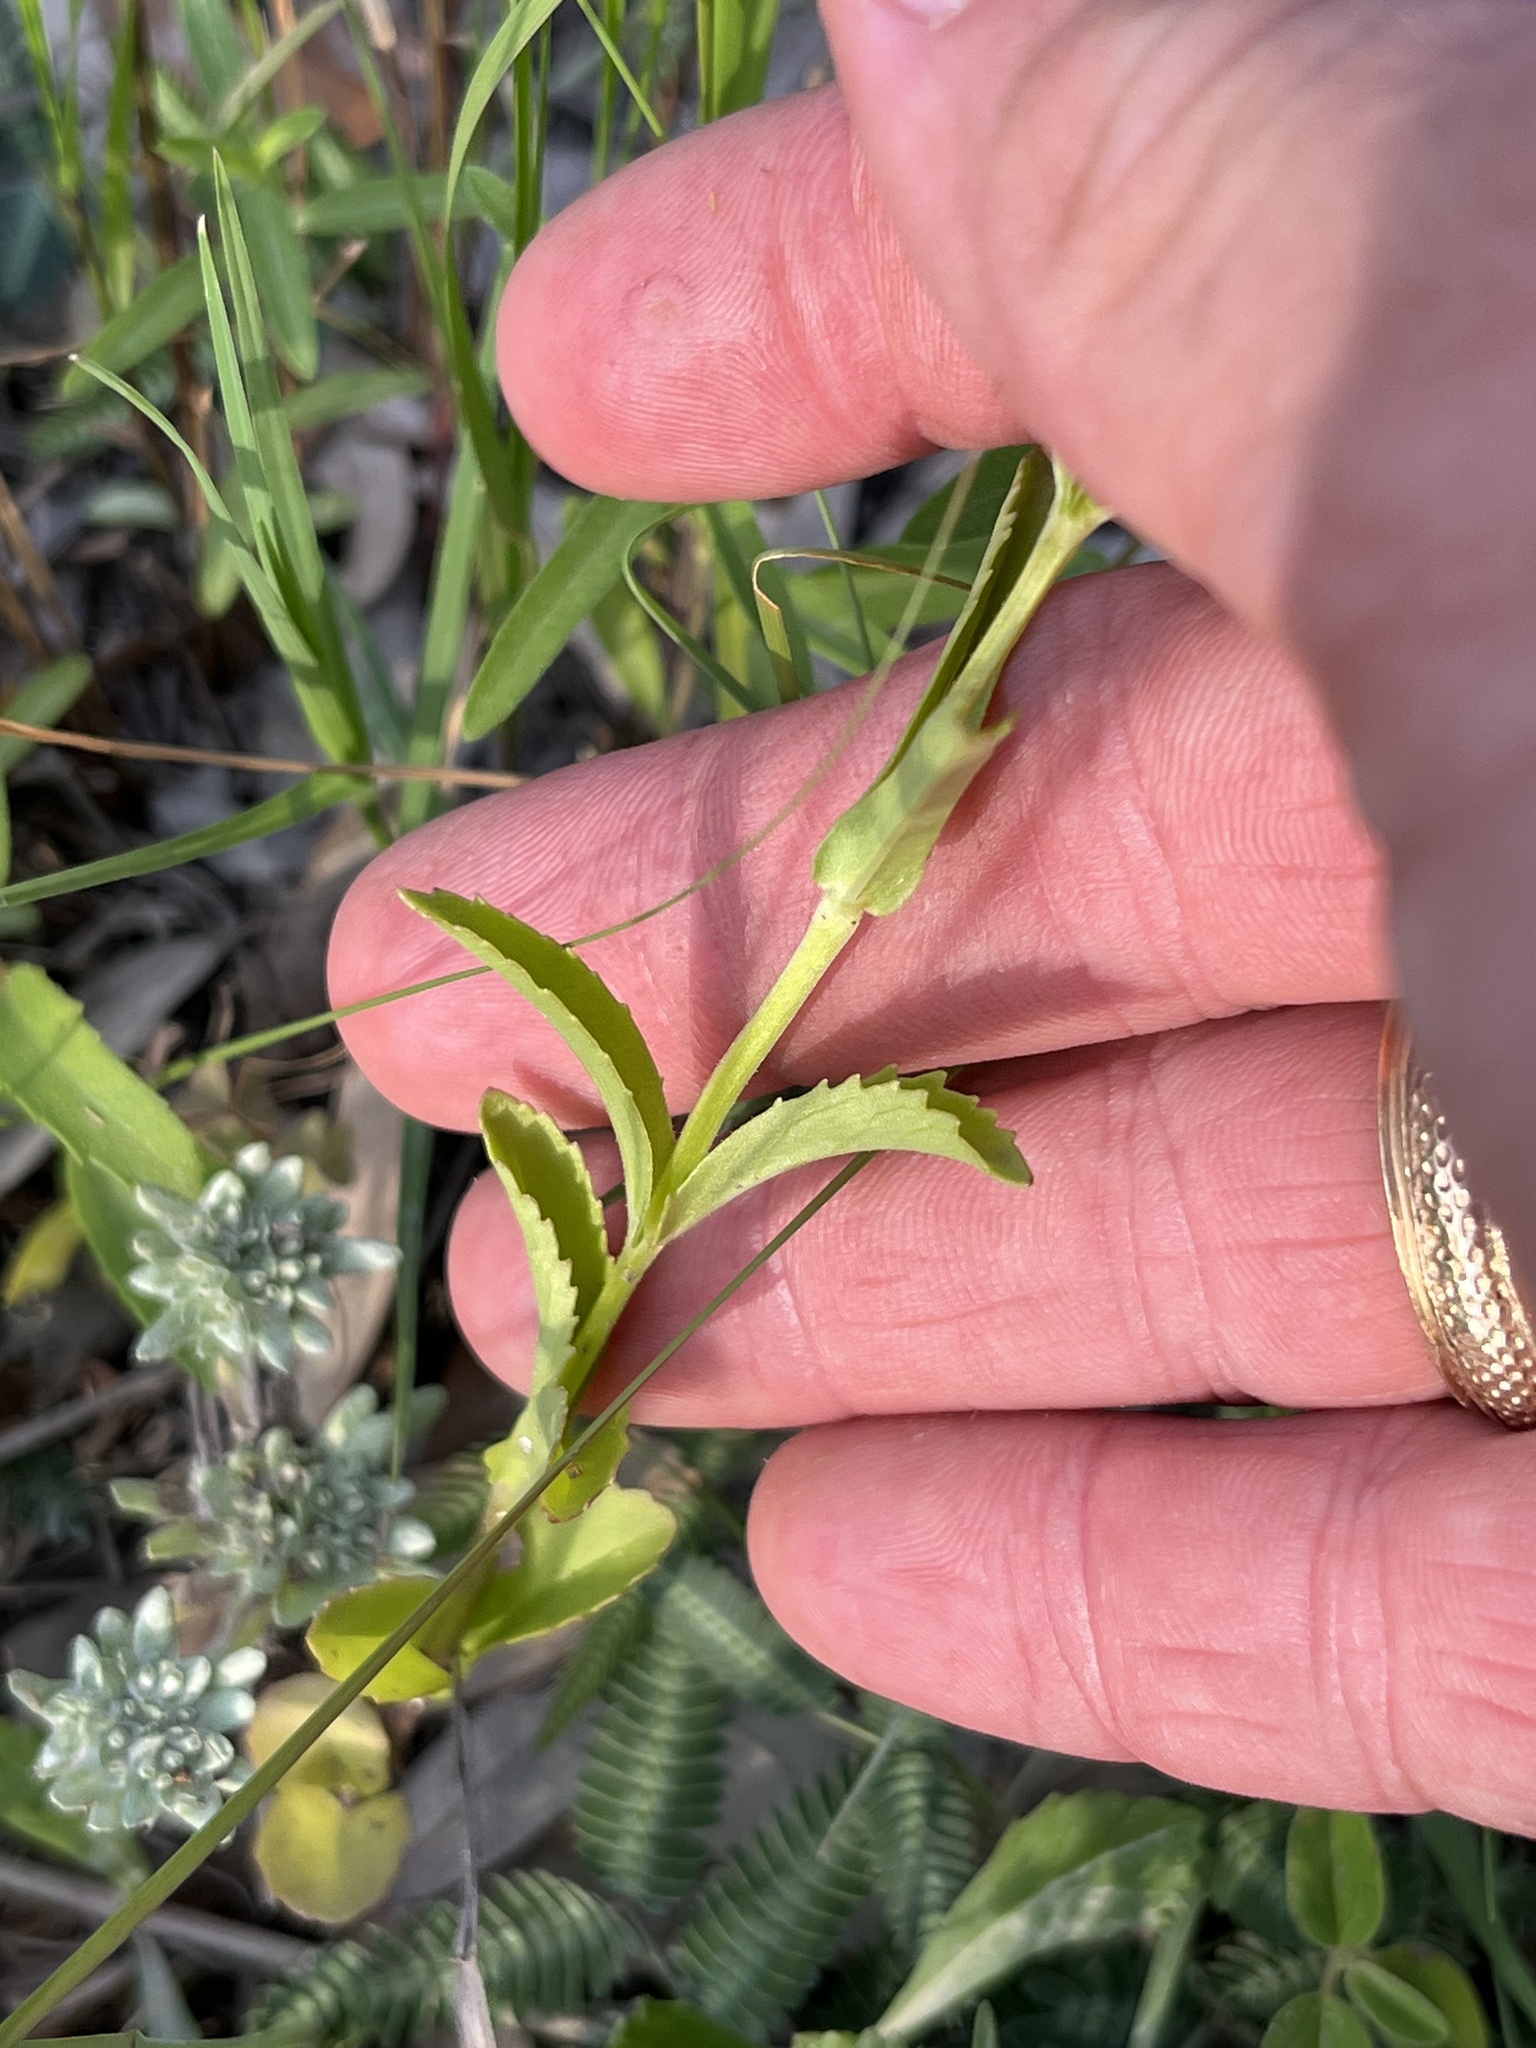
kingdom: Plantae
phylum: Tracheophyta
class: Magnoliopsida
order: Lamiales
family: Lamiaceae
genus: Warnockia
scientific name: Warnockia scutellarioides
